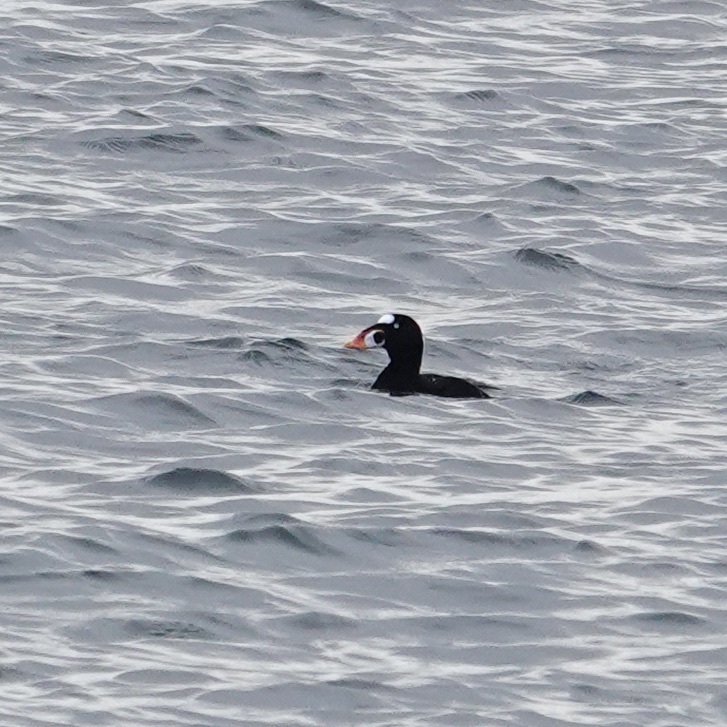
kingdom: Animalia
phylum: Chordata
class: Aves
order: Anseriformes
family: Anatidae
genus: Melanitta
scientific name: Melanitta perspicillata
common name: Surf scoter
